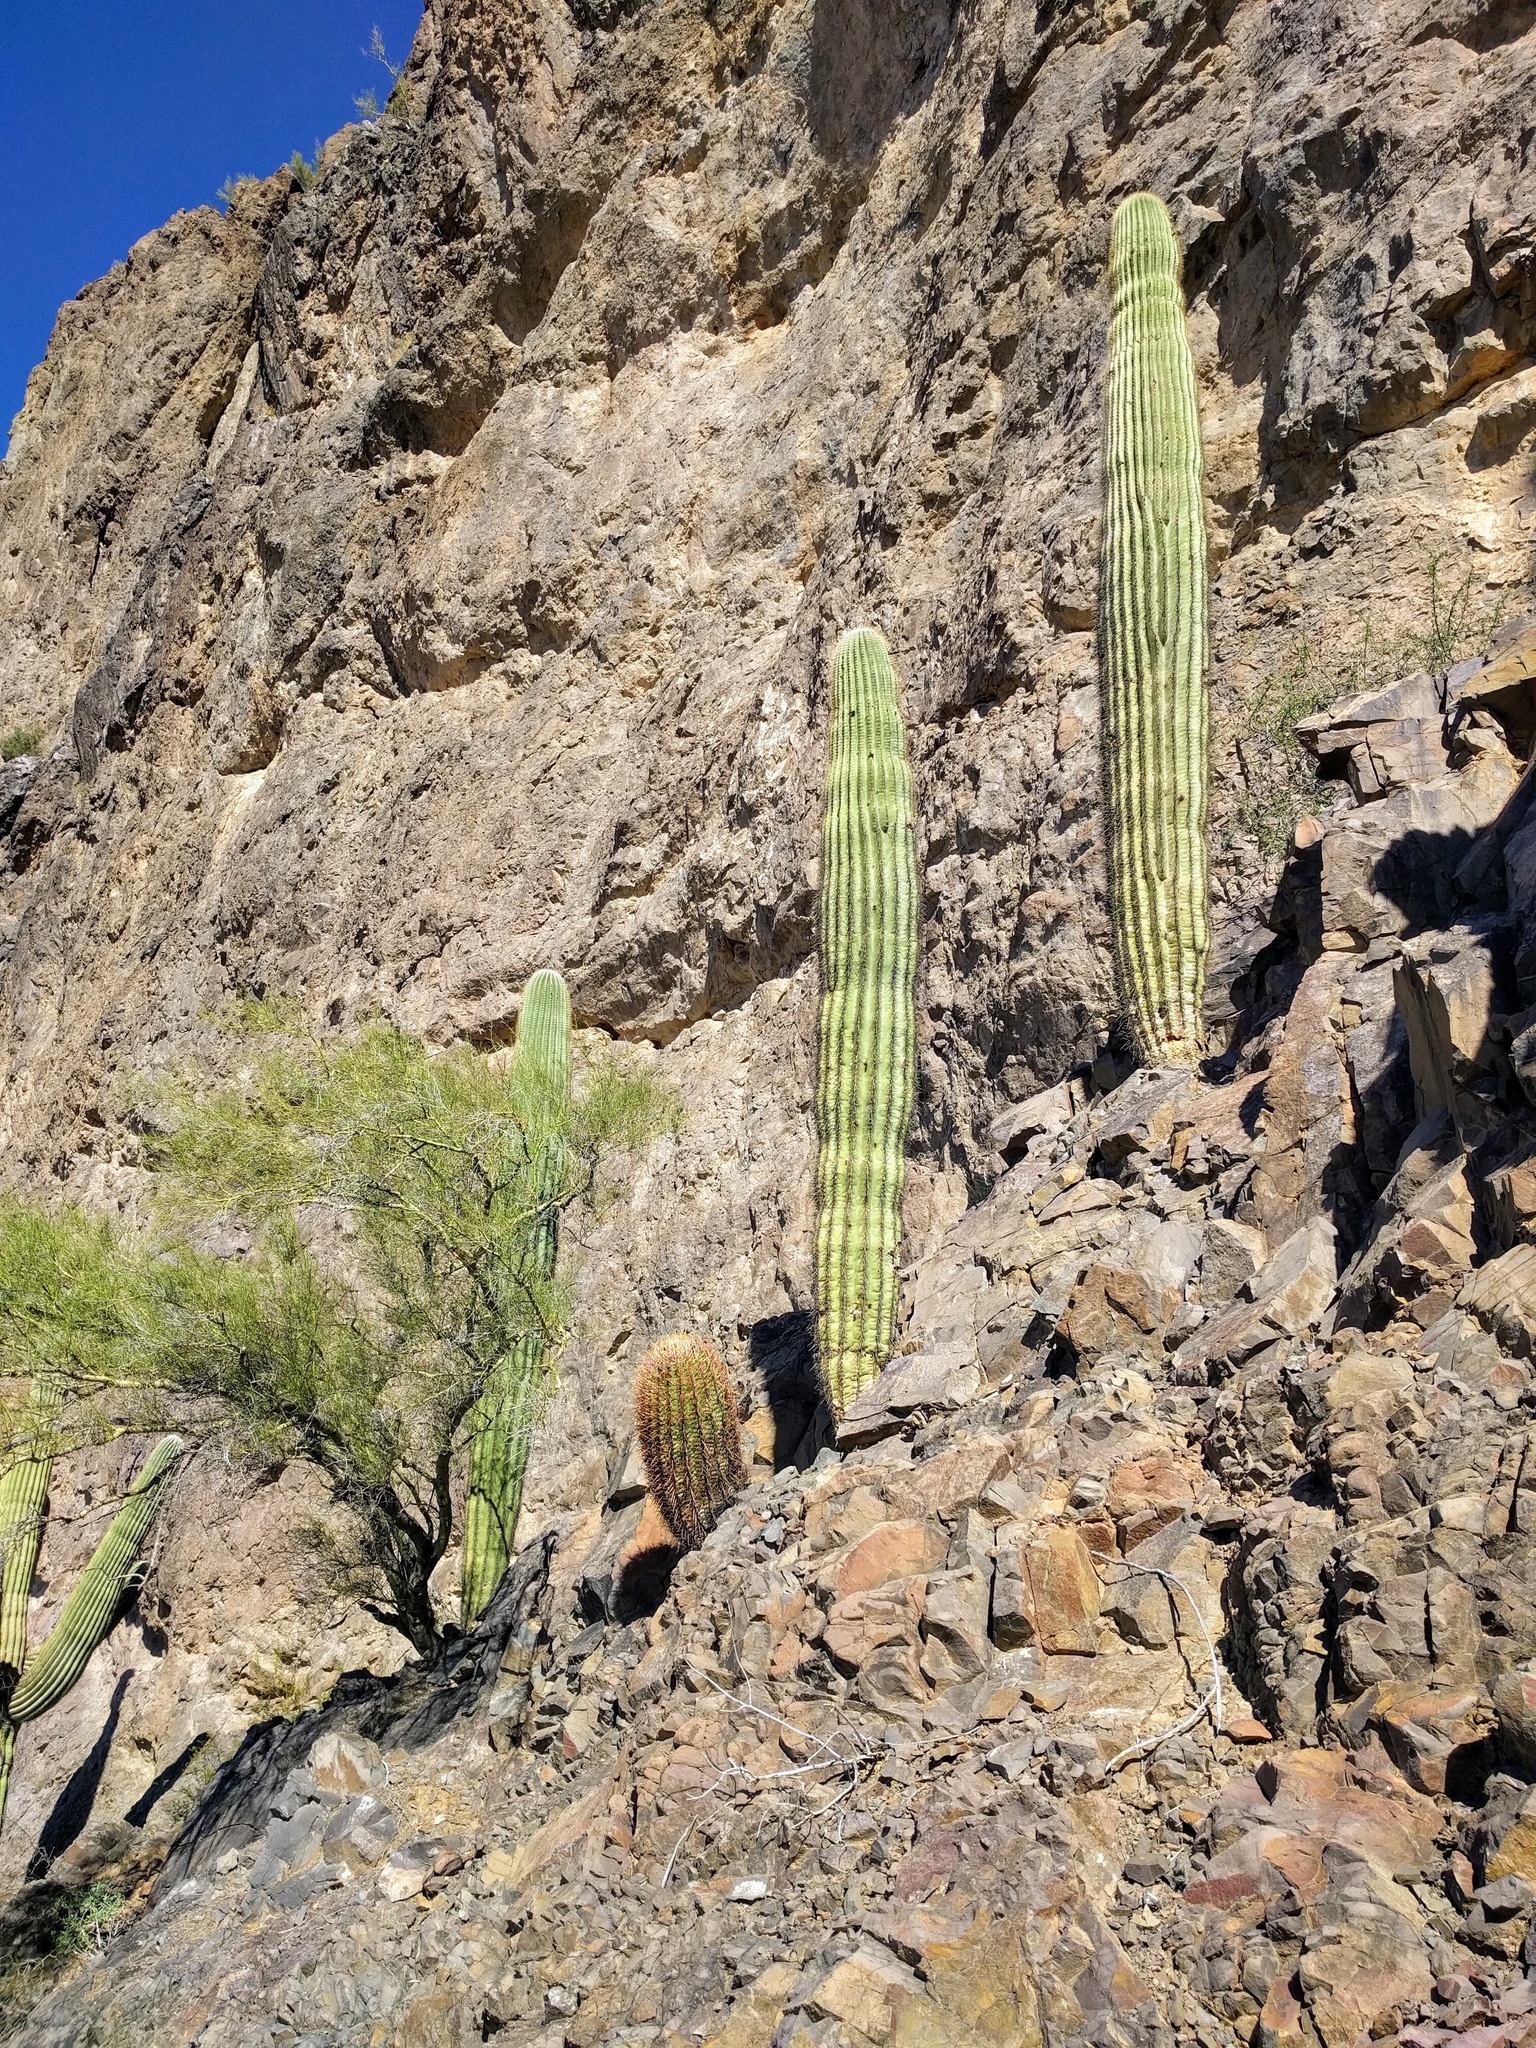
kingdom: Plantae
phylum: Tracheophyta
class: Magnoliopsida
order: Caryophyllales
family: Cactaceae
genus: Carnegiea
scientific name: Carnegiea gigantea
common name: Saguaro
